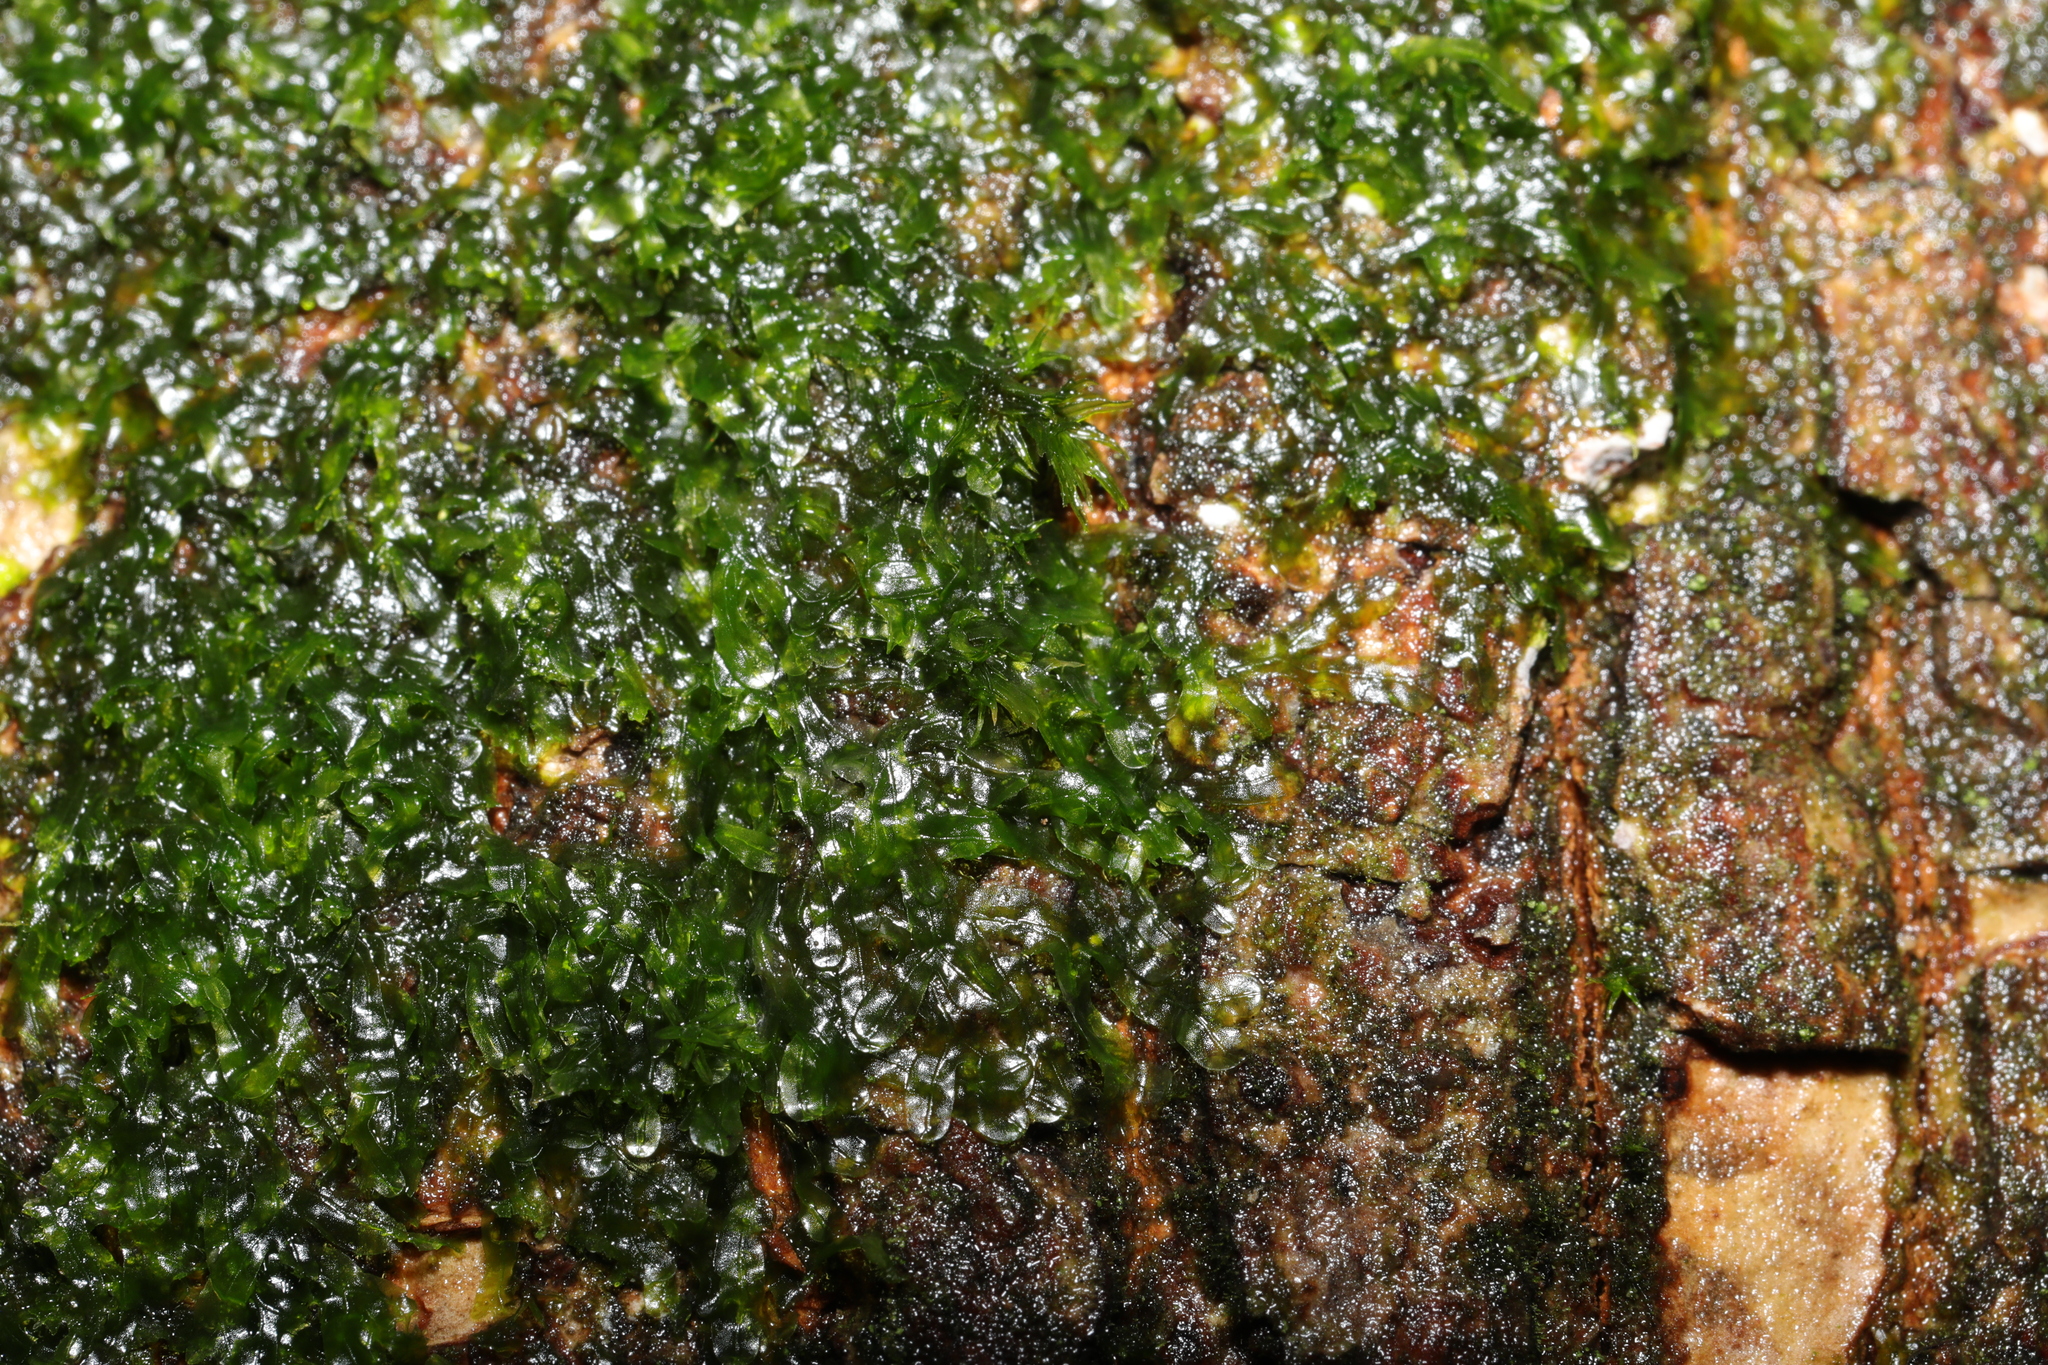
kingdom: Plantae
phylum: Marchantiophyta
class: Jungermanniopsida
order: Metzgeriales
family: Metzgeriaceae
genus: Metzgeria
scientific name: Metzgeria furcata
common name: Forked veilwort
